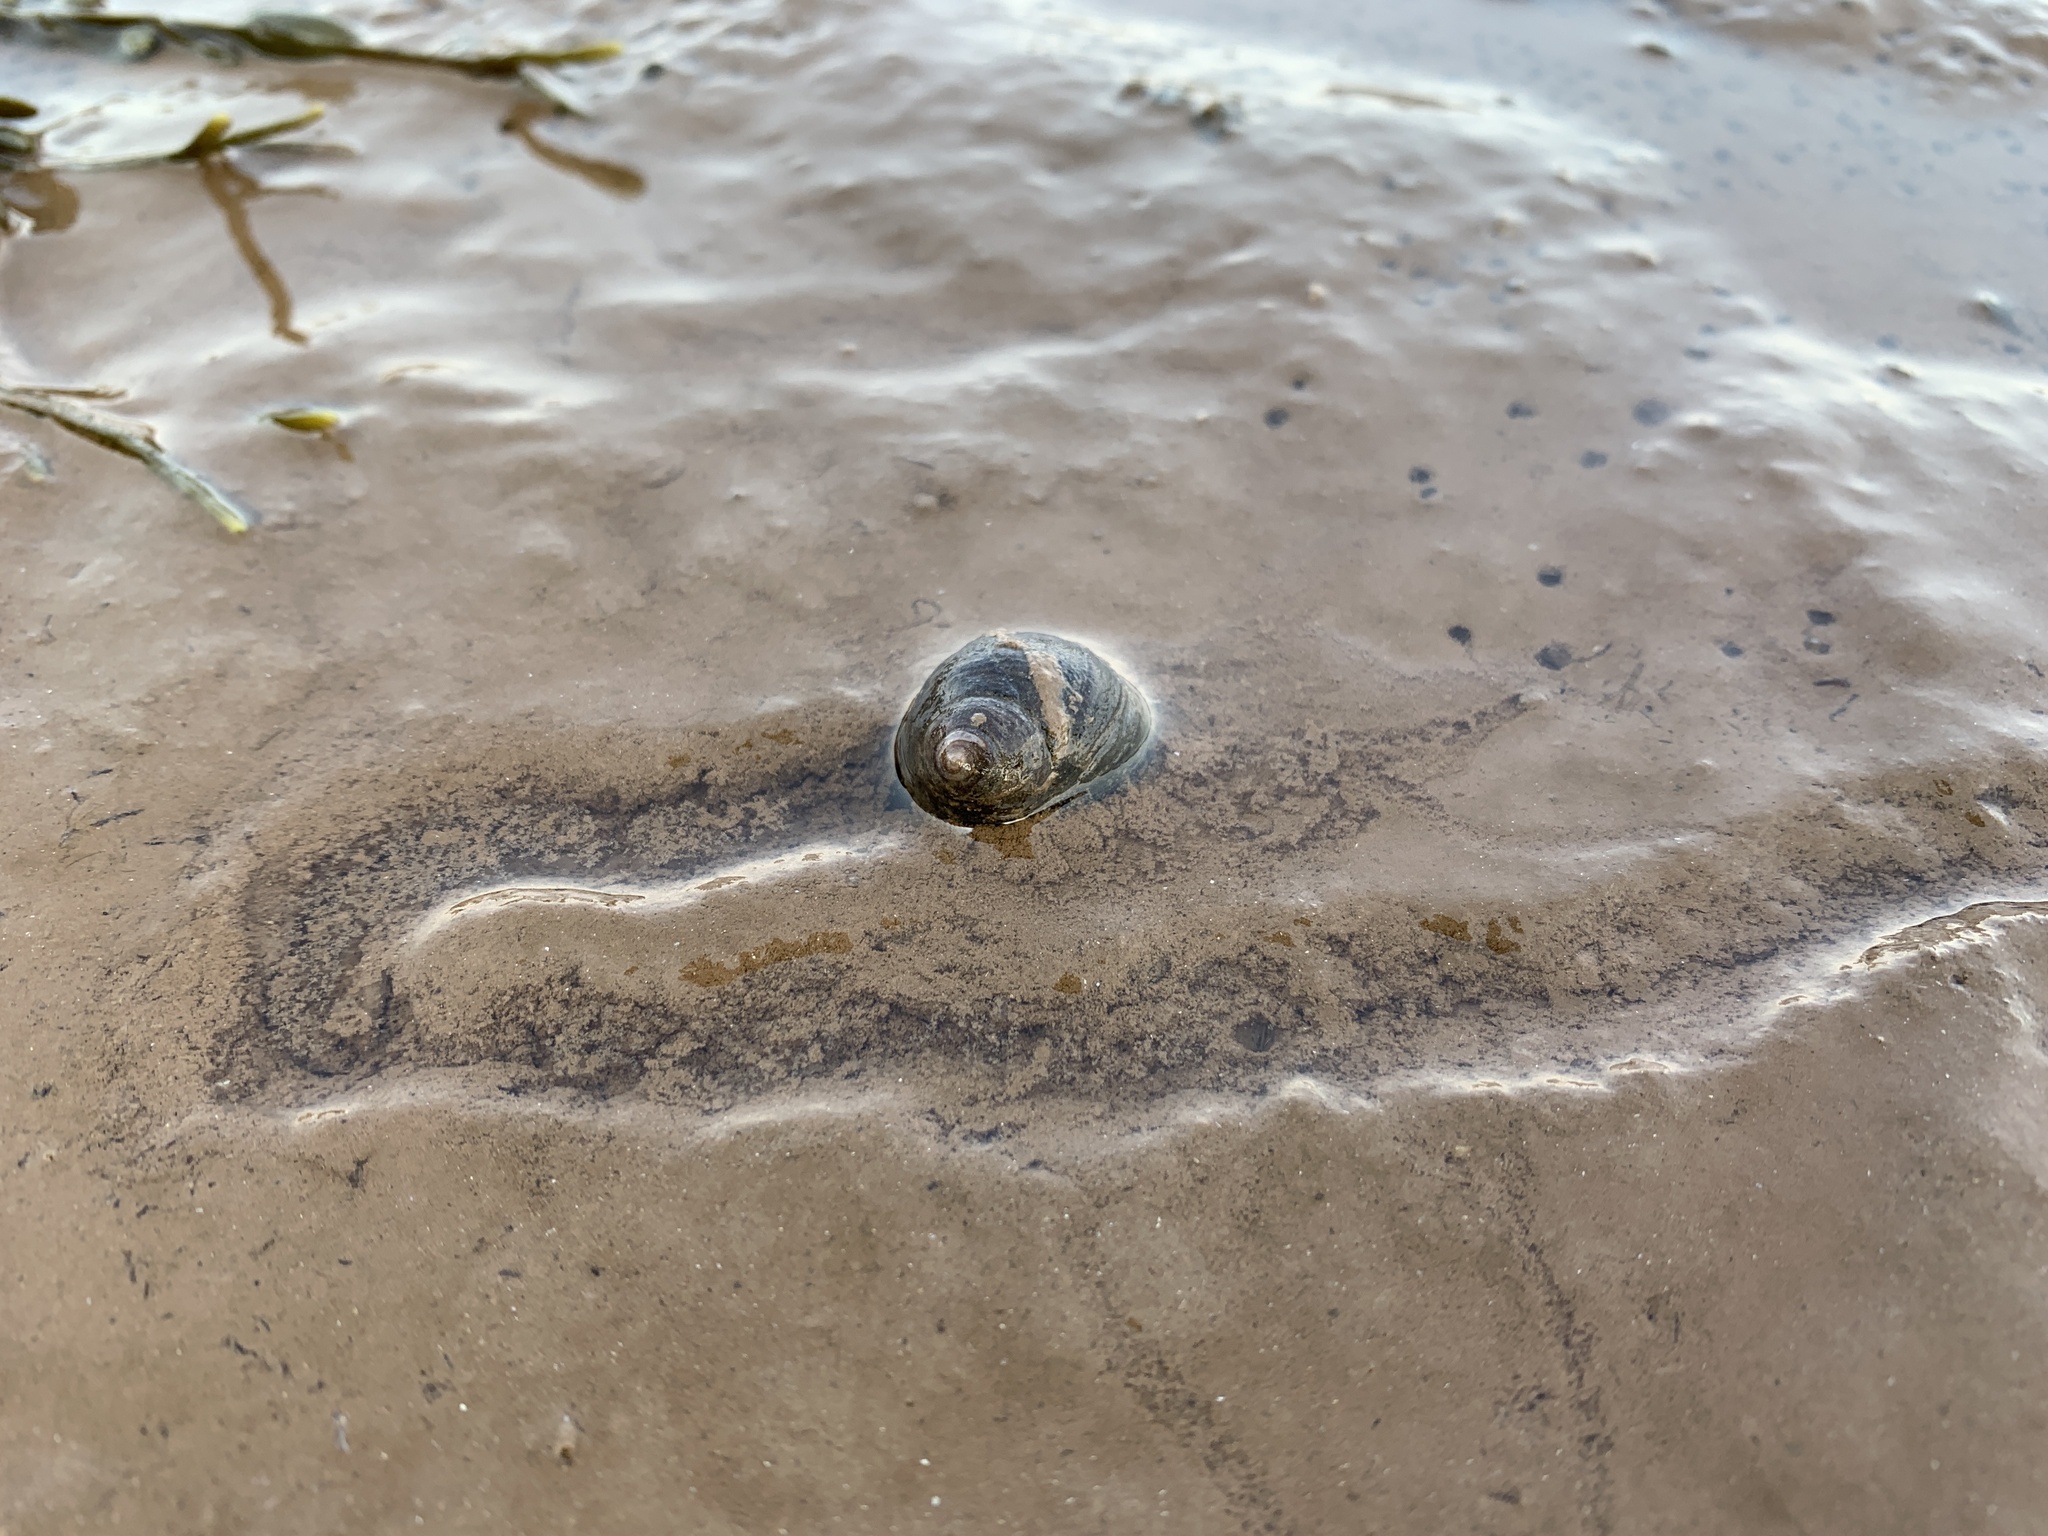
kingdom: Animalia
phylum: Mollusca
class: Gastropoda
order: Littorinimorpha
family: Littorinidae
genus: Littorina
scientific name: Littorina littorea
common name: Common periwinkle
